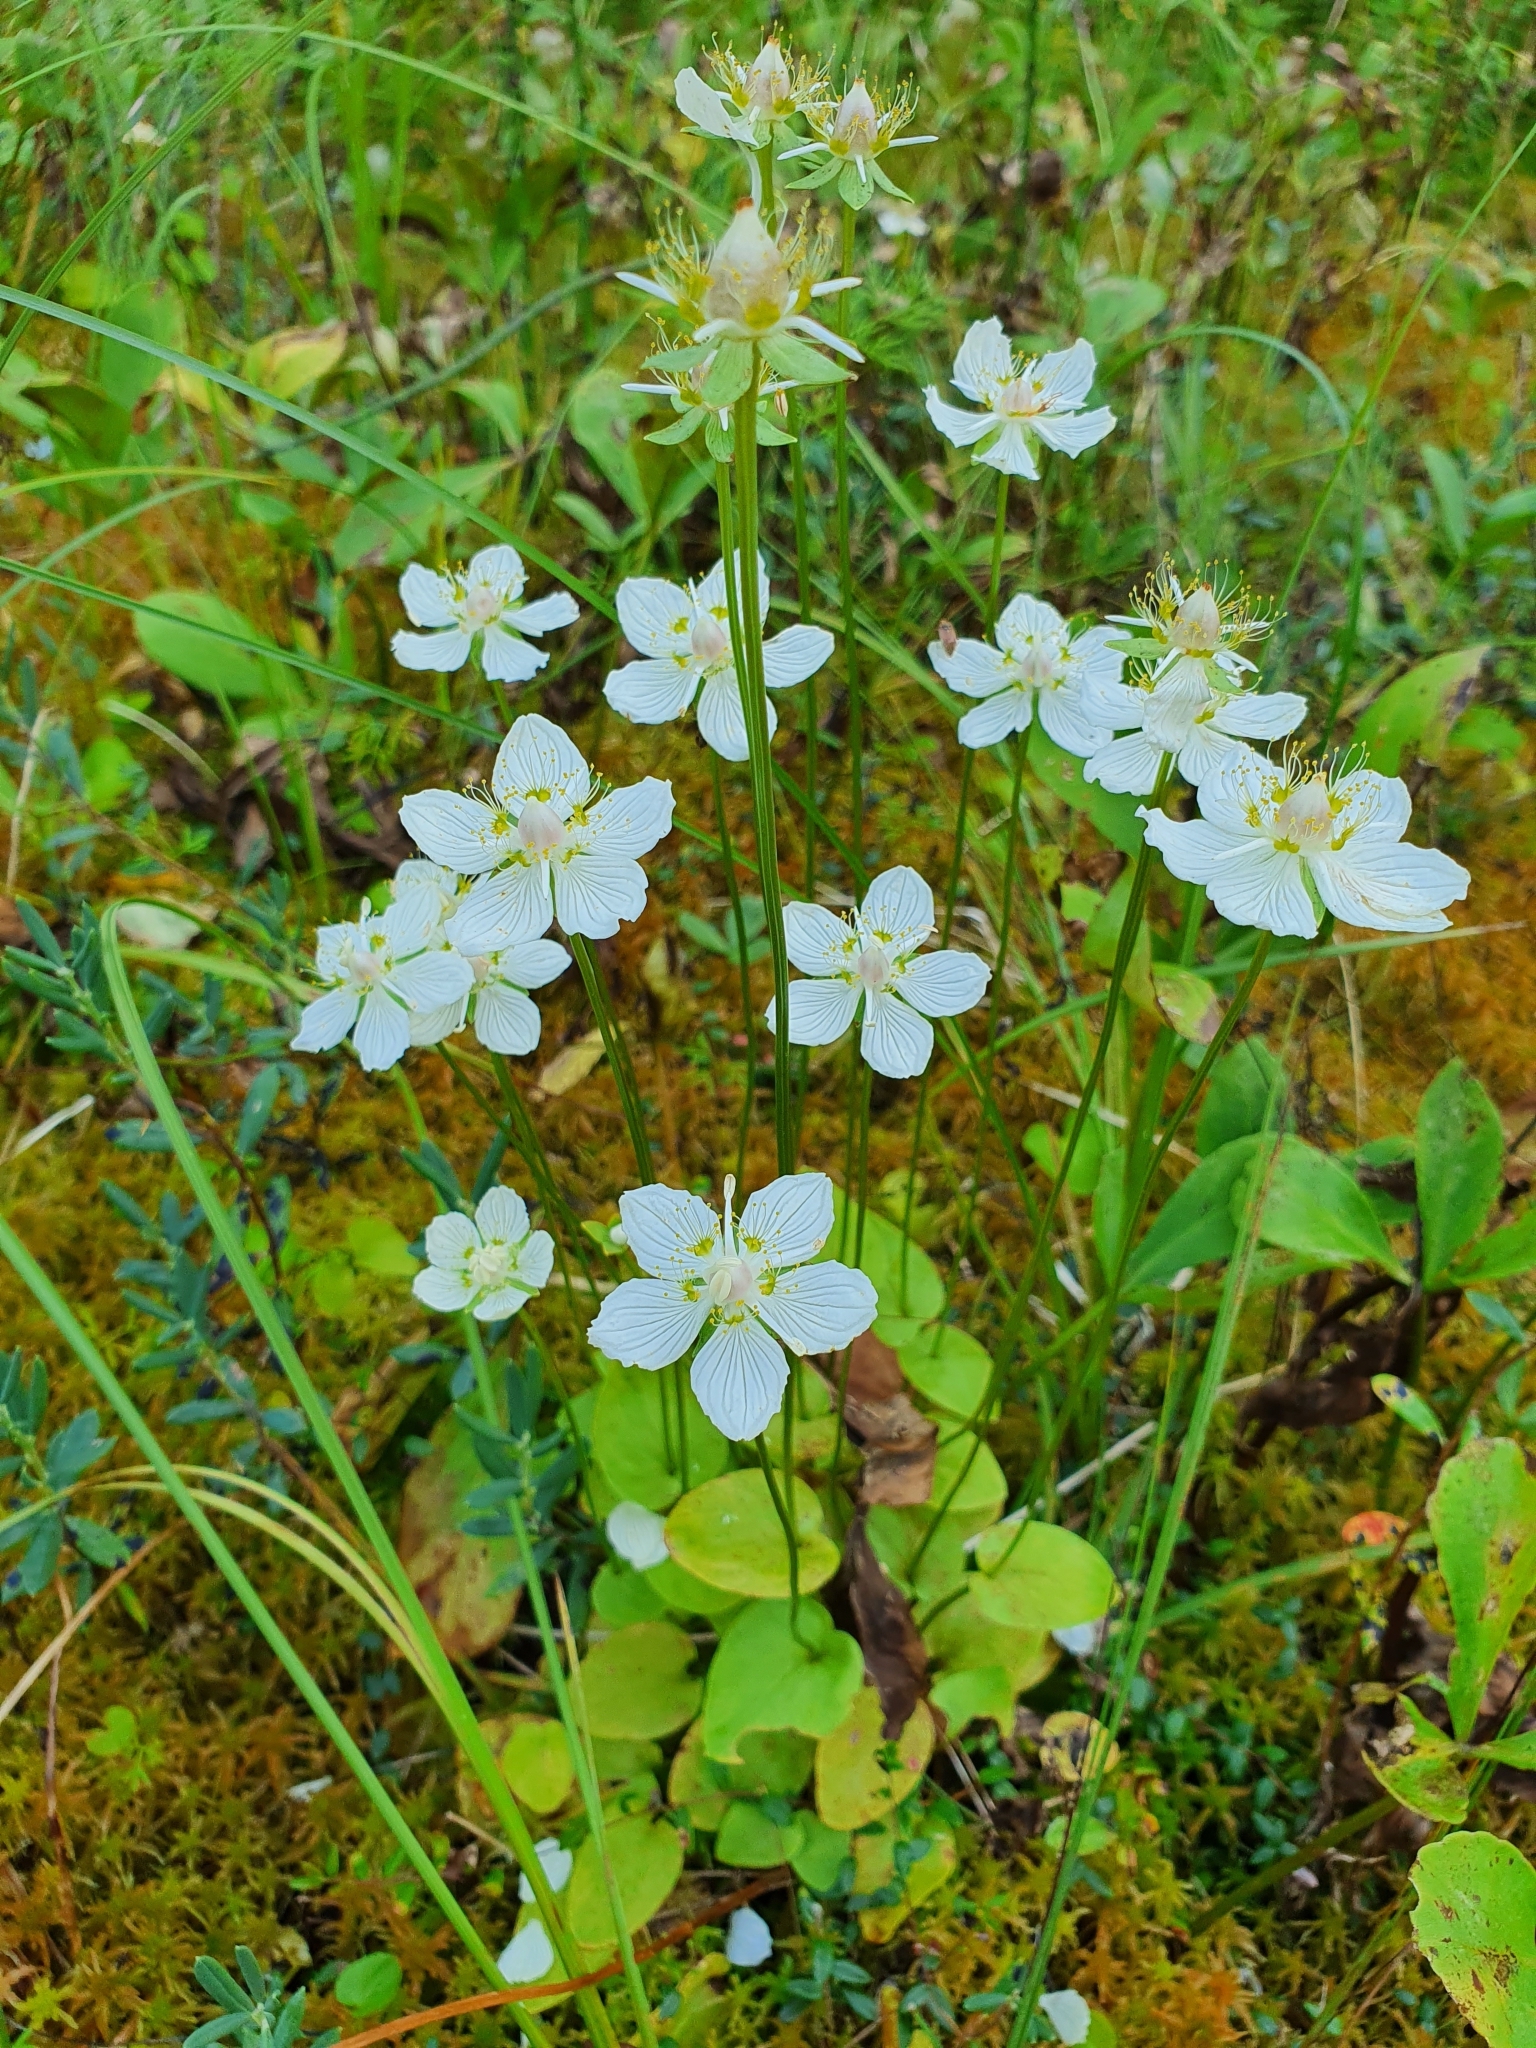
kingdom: Plantae
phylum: Tracheophyta
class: Magnoliopsida
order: Celastrales
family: Parnassiaceae
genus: Parnassia
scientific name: Parnassia palustris
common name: Grass-of-parnassus
